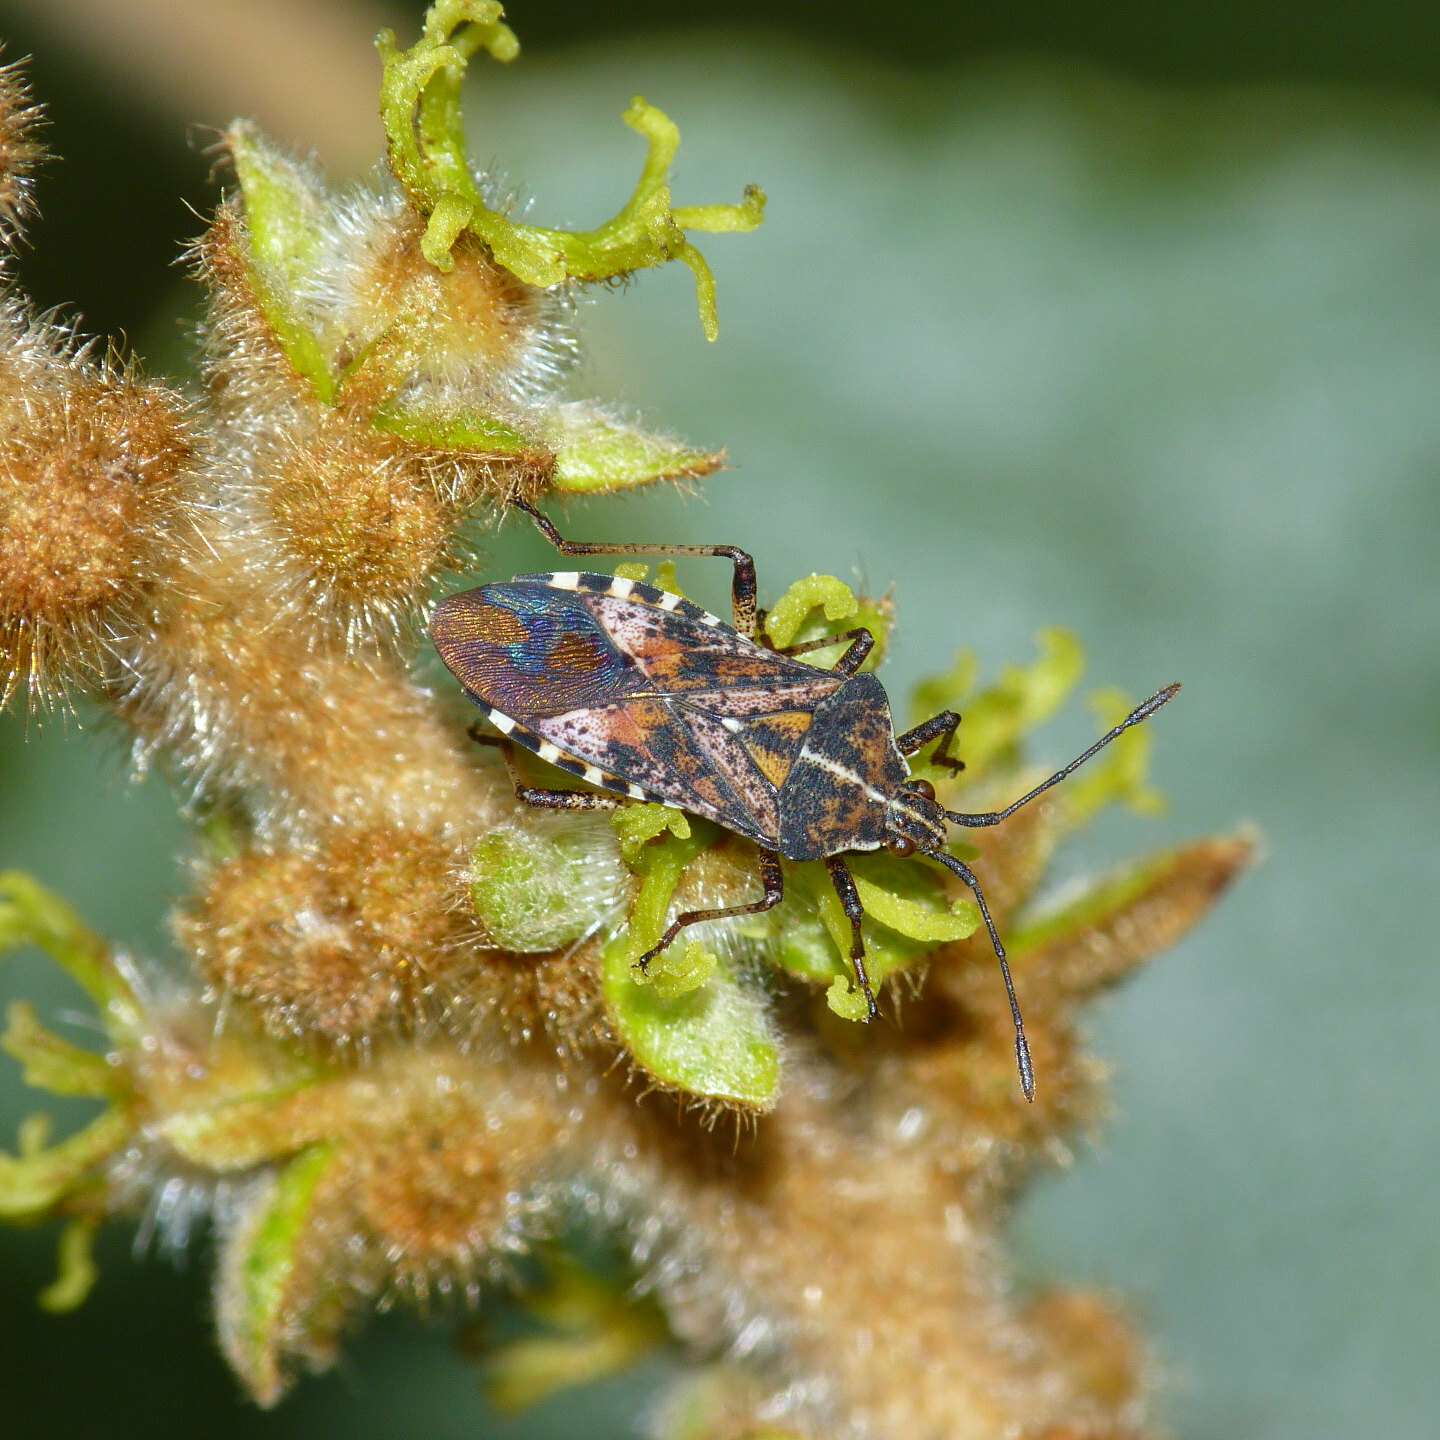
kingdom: Animalia
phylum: Arthropoda
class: Insecta
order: Hemiptera
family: Coreidae
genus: Althos
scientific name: Althos pericarti
